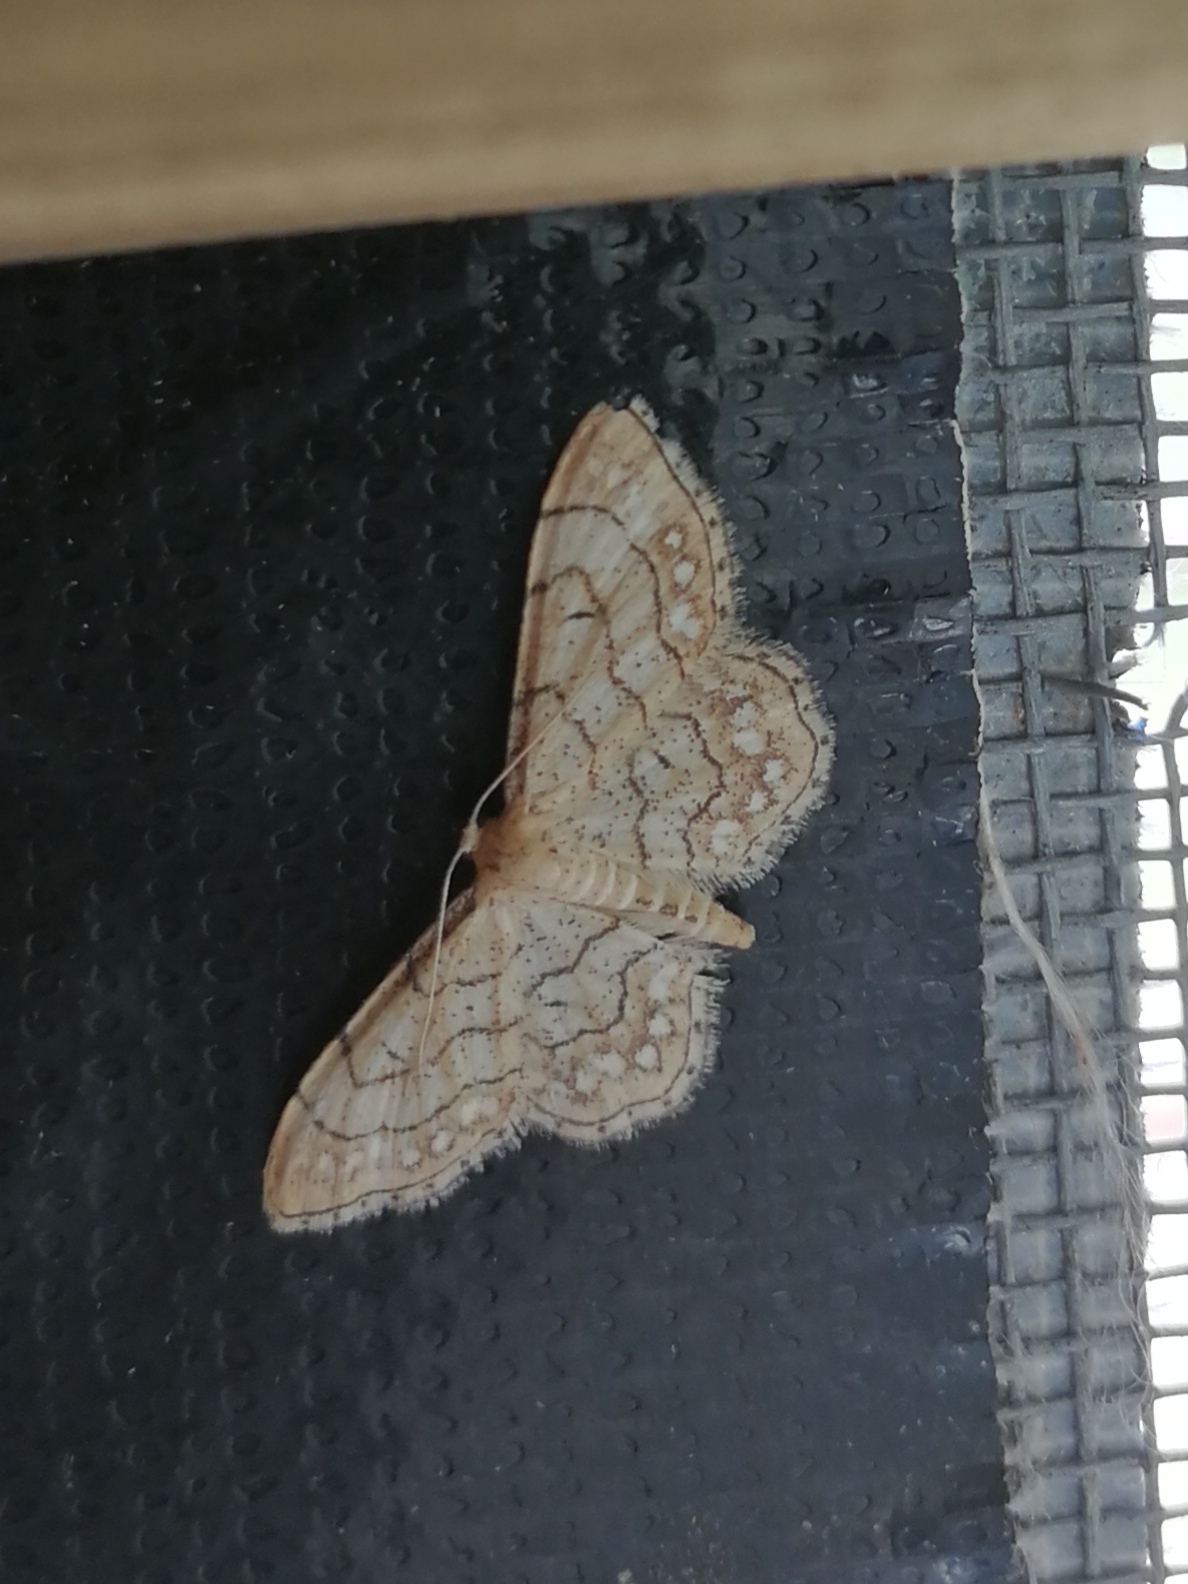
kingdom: Animalia
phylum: Arthropoda
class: Insecta
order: Lepidoptera
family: Geometridae
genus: Idaea
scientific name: Idaea moniliata
